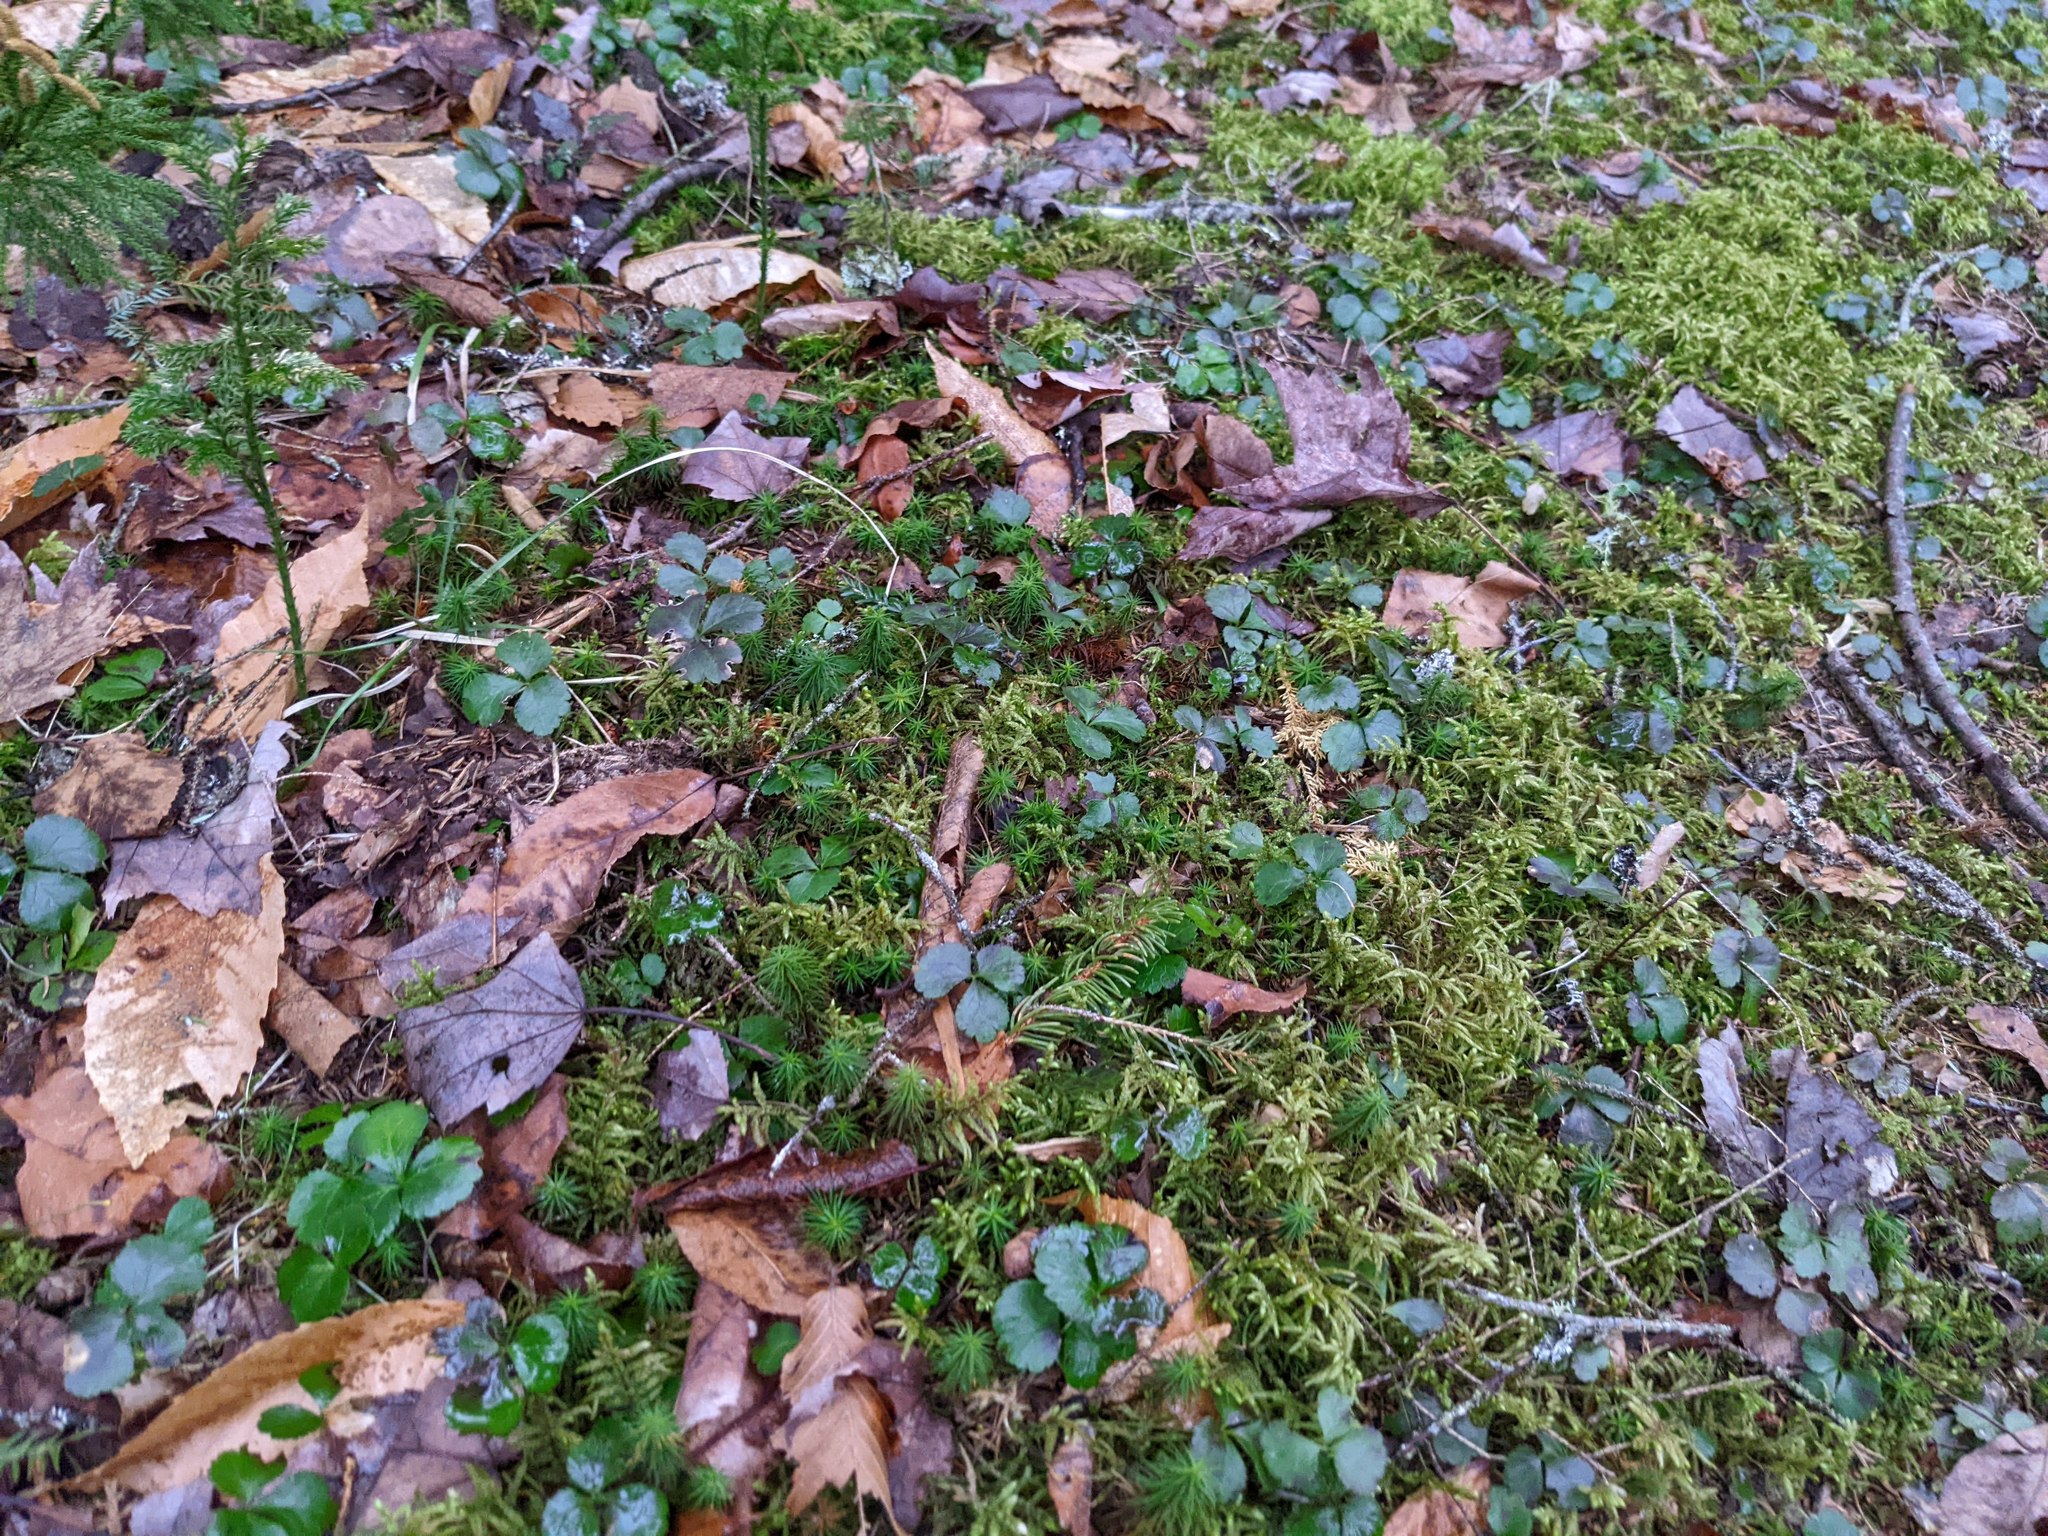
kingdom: Plantae
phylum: Tracheophyta
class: Magnoliopsida
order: Ranunculales
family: Ranunculaceae
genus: Coptis
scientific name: Coptis trifolia
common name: Canker-root
